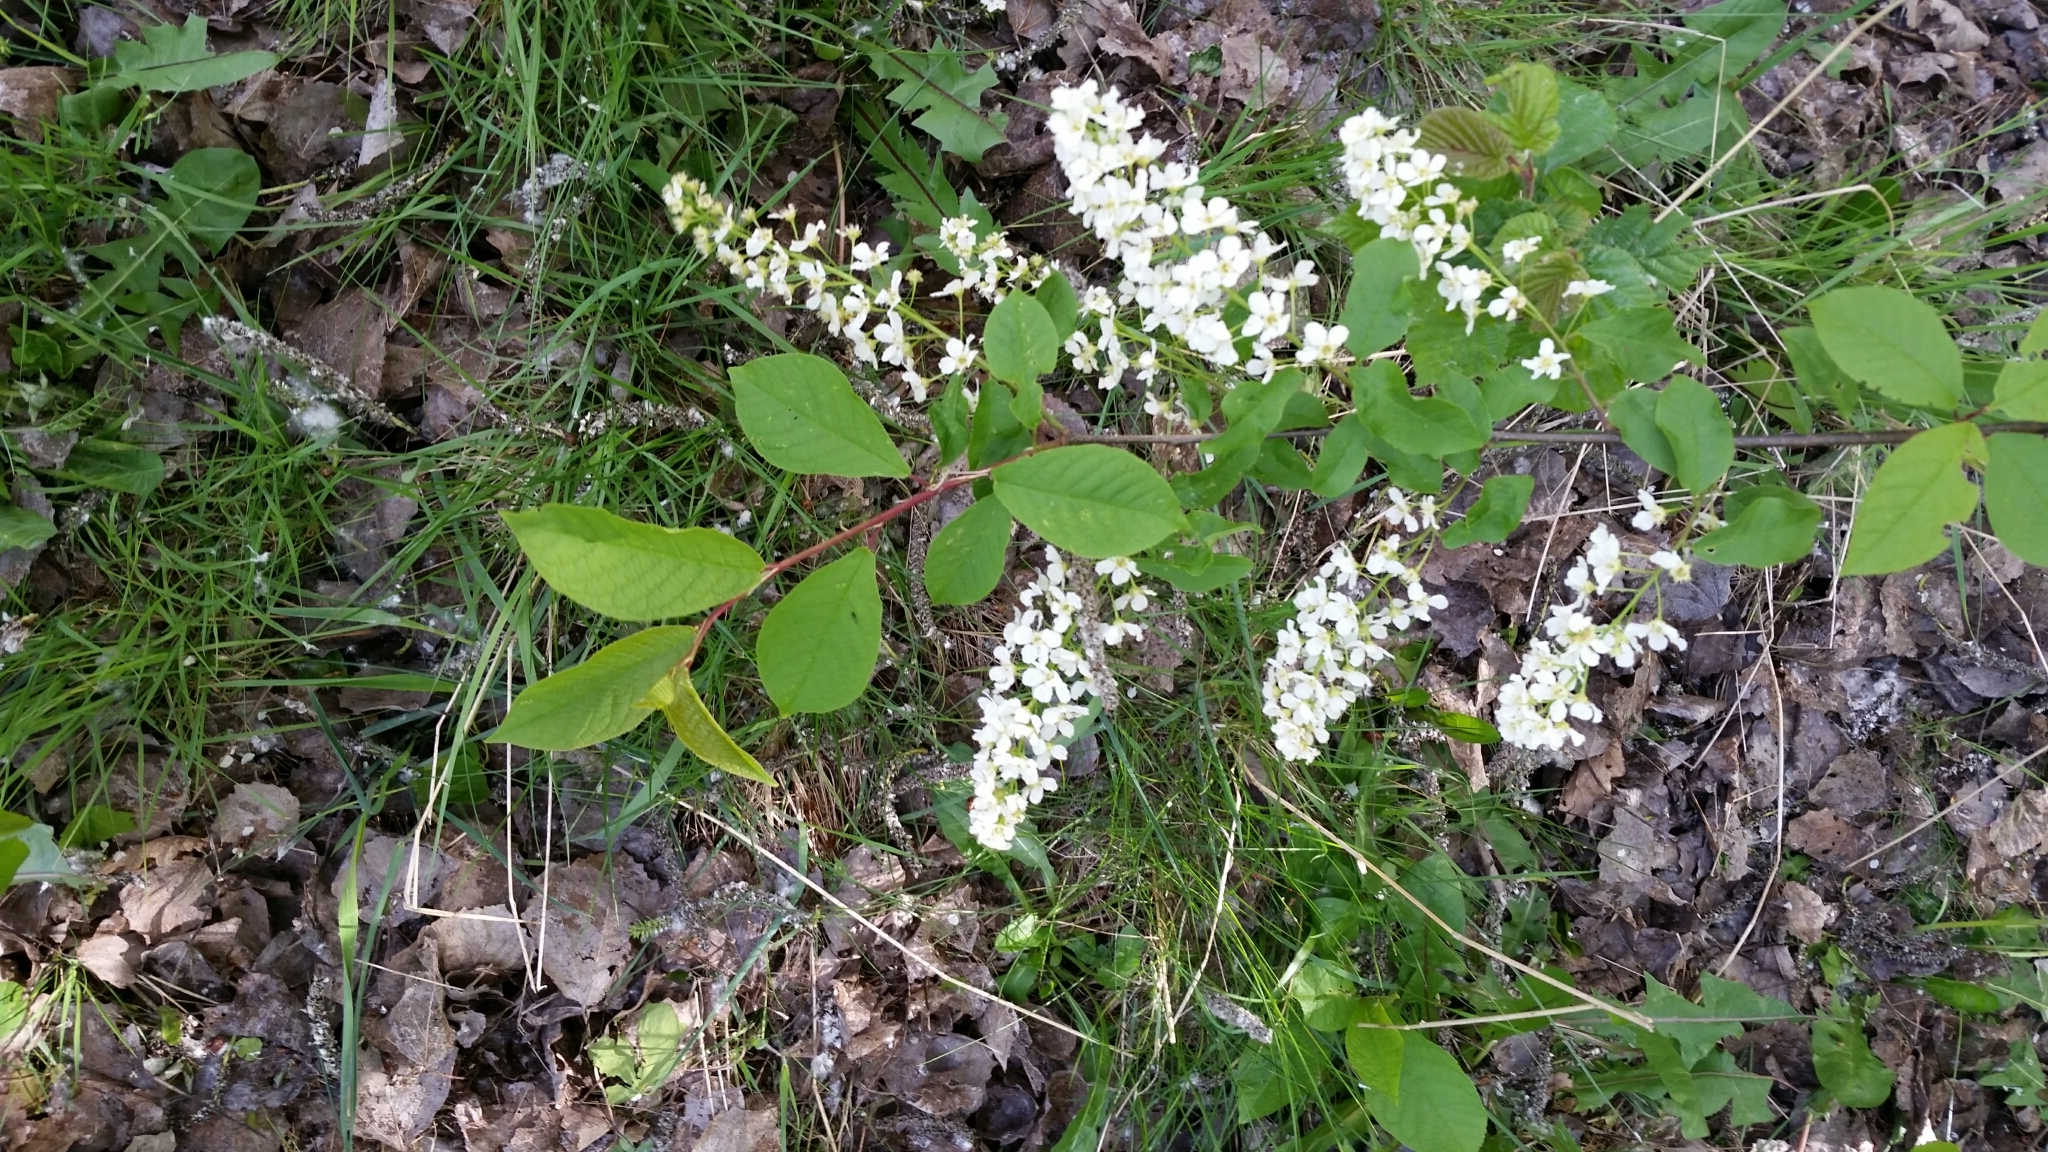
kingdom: Plantae
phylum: Tracheophyta
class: Magnoliopsida
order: Rosales
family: Rosaceae
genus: Prunus
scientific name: Prunus padus
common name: Bird cherry
